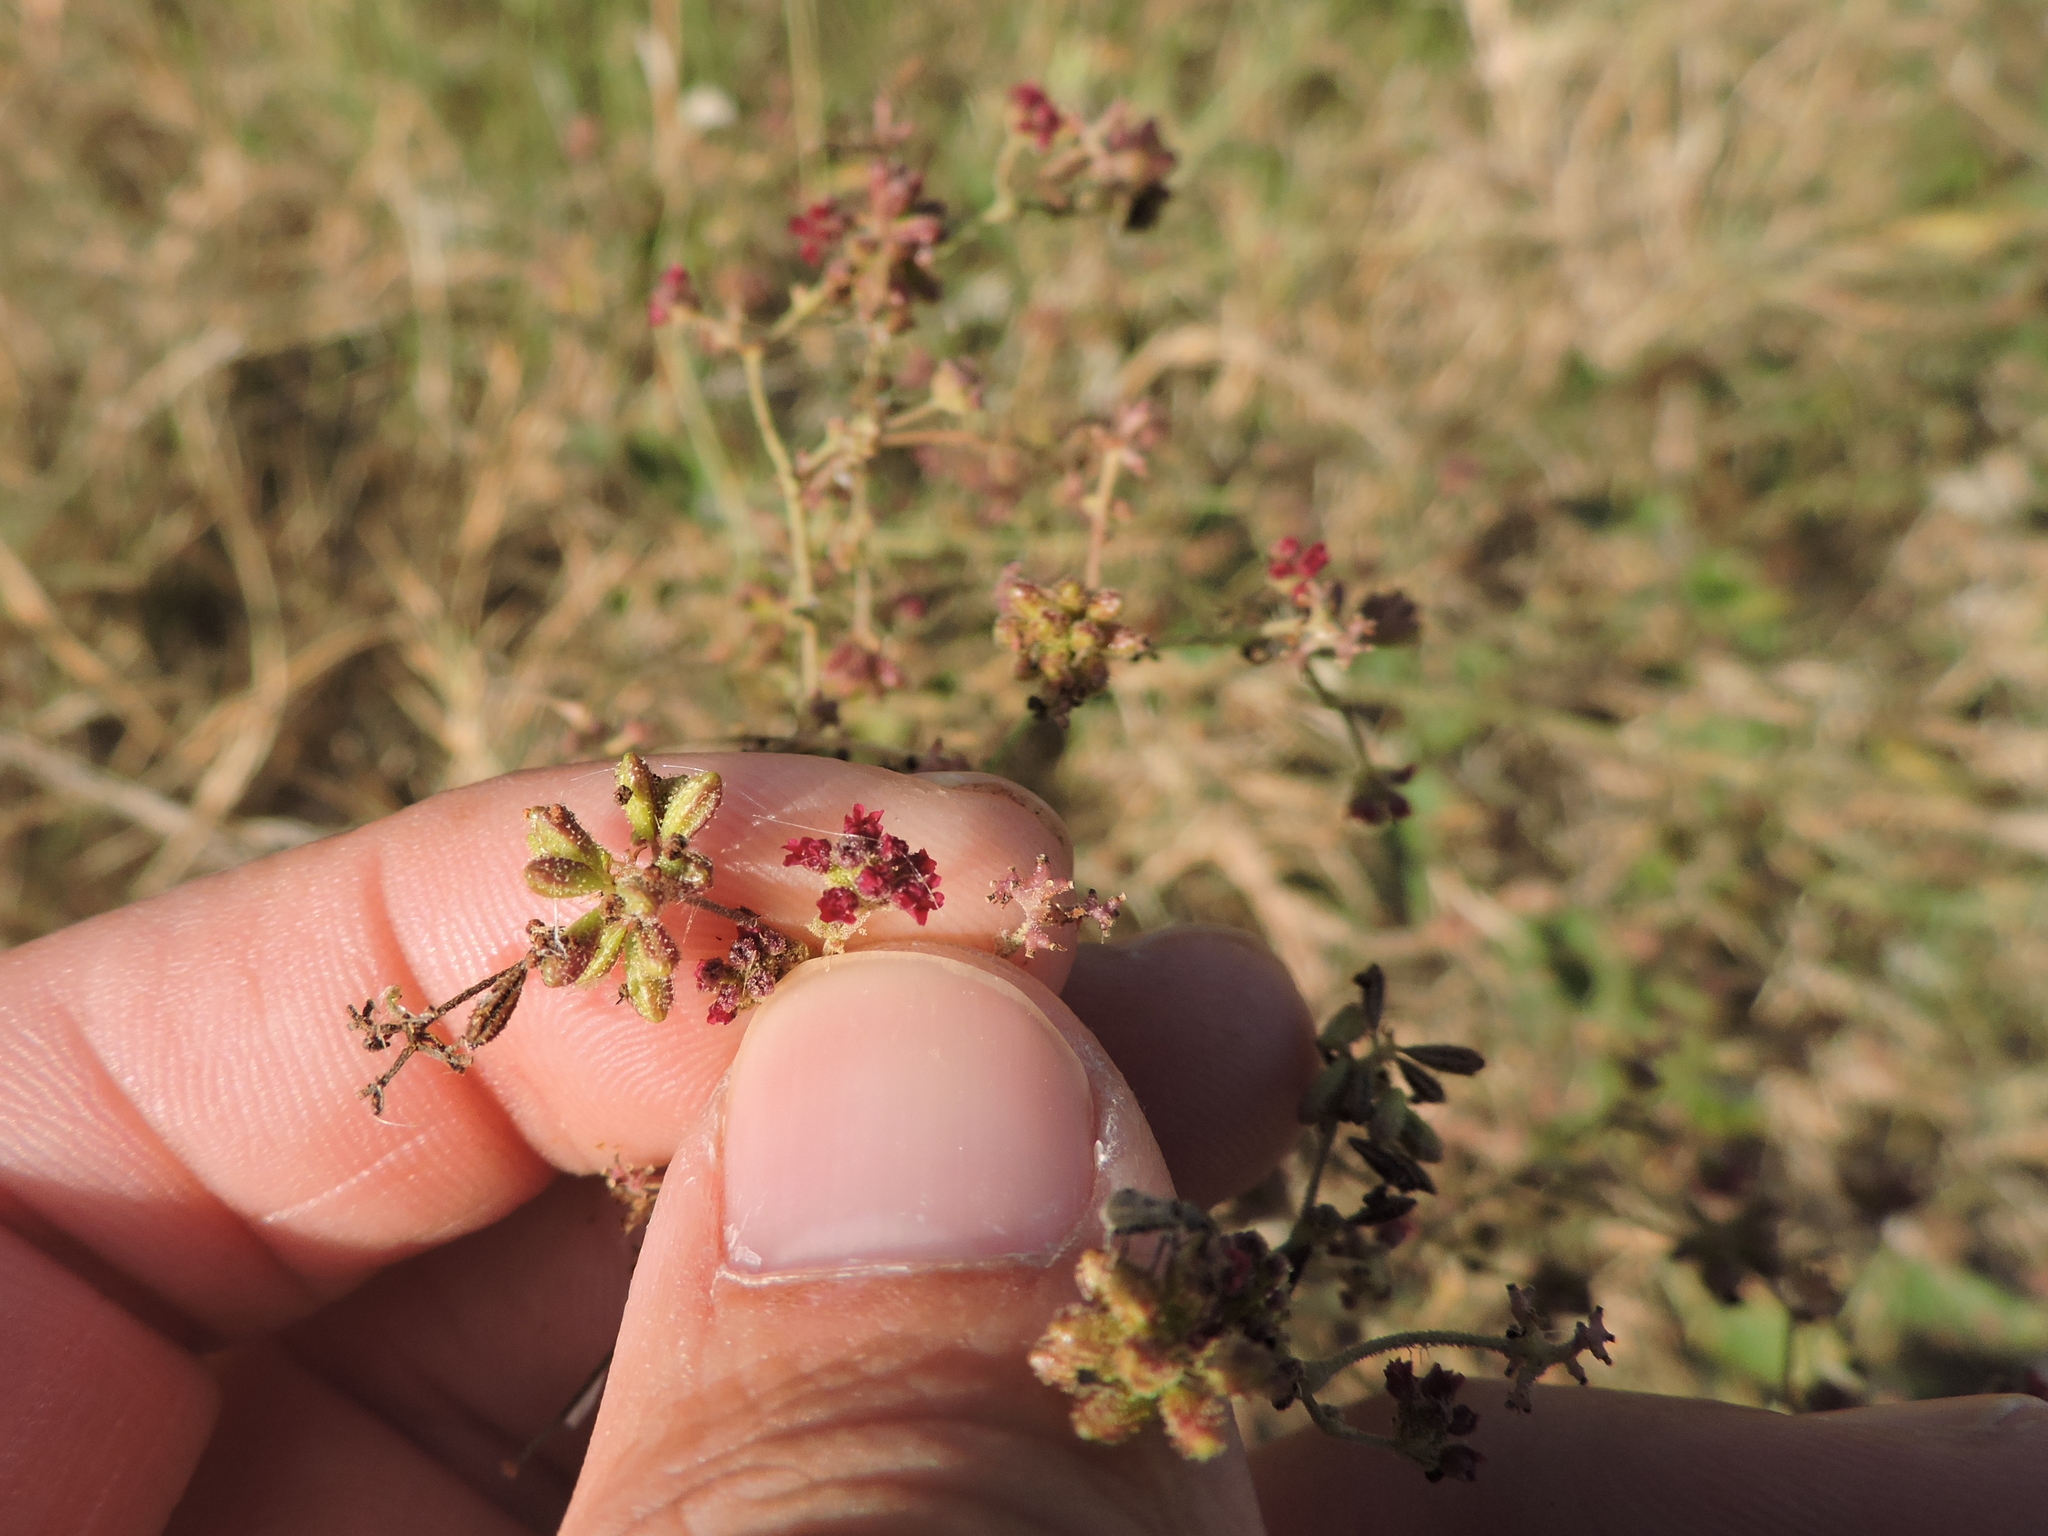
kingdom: Plantae
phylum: Tracheophyta
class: Magnoliopsida
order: Caryophyllales
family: Nyctaginaceae
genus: Boerhavia
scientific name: Boerhavia coccinea
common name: Scarlet spiderling
